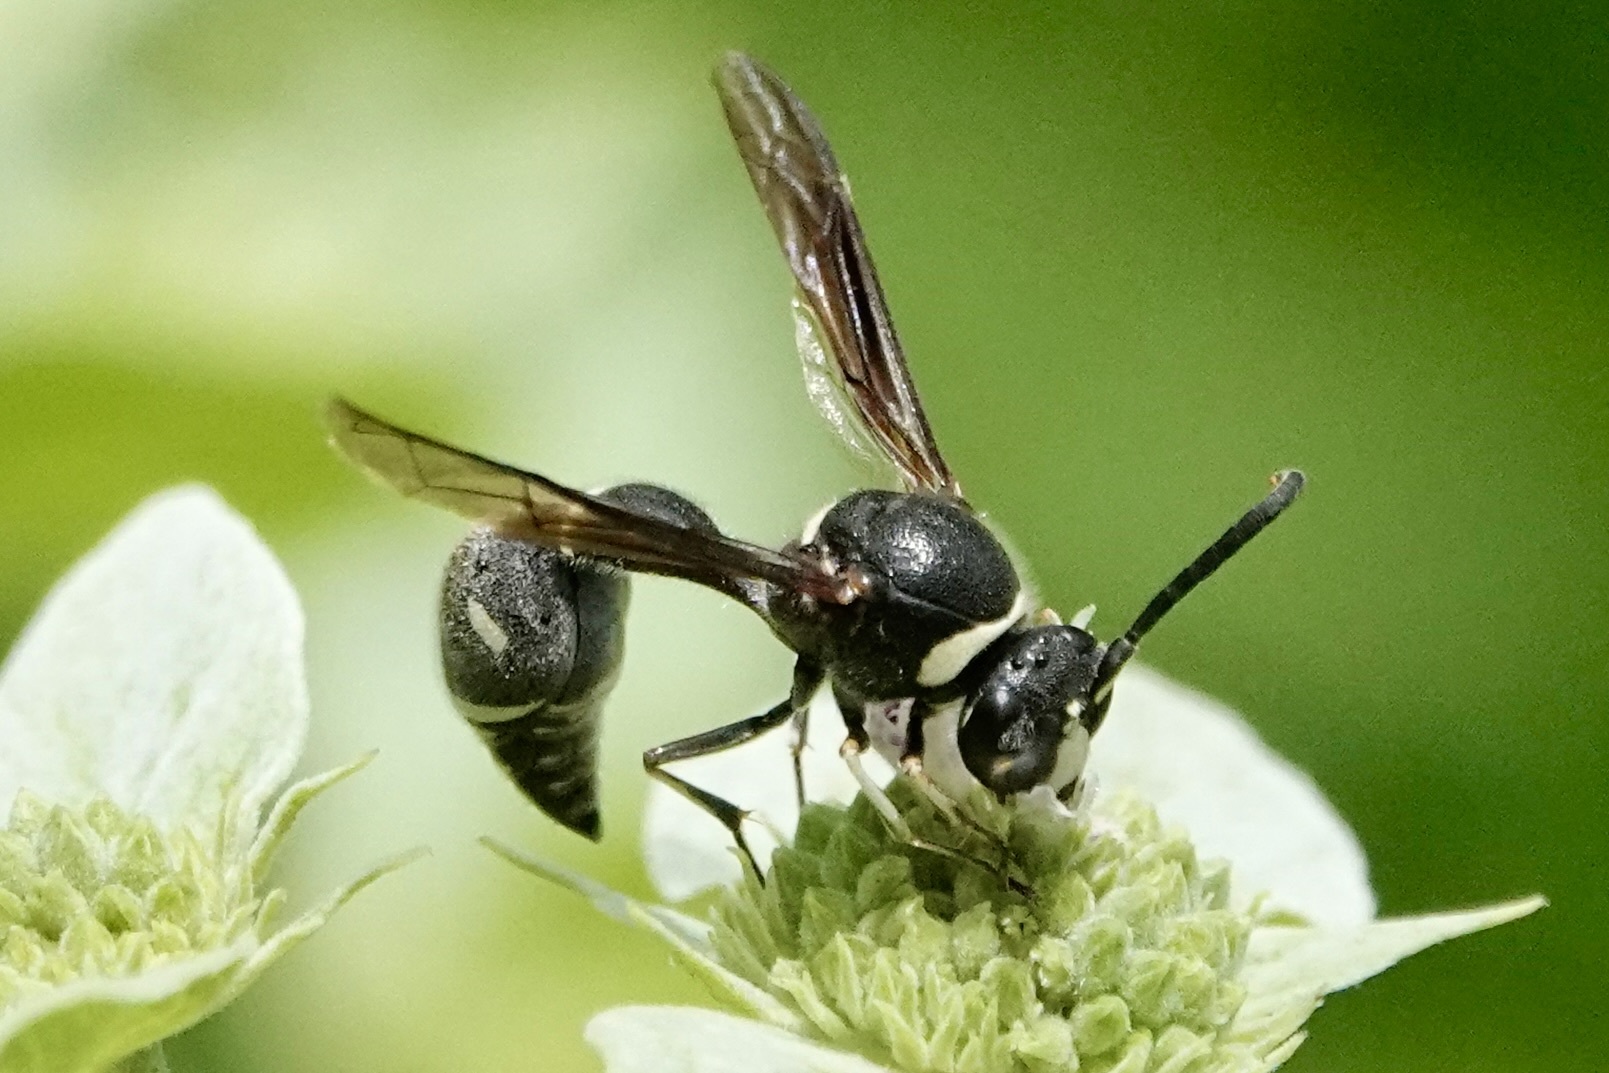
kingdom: Animalia
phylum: Arthropoda
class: Insecta
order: Hymenoptera
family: Vespidae
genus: Eumenes
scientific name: Eumenes fraternus
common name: Fraternal potter wasp
